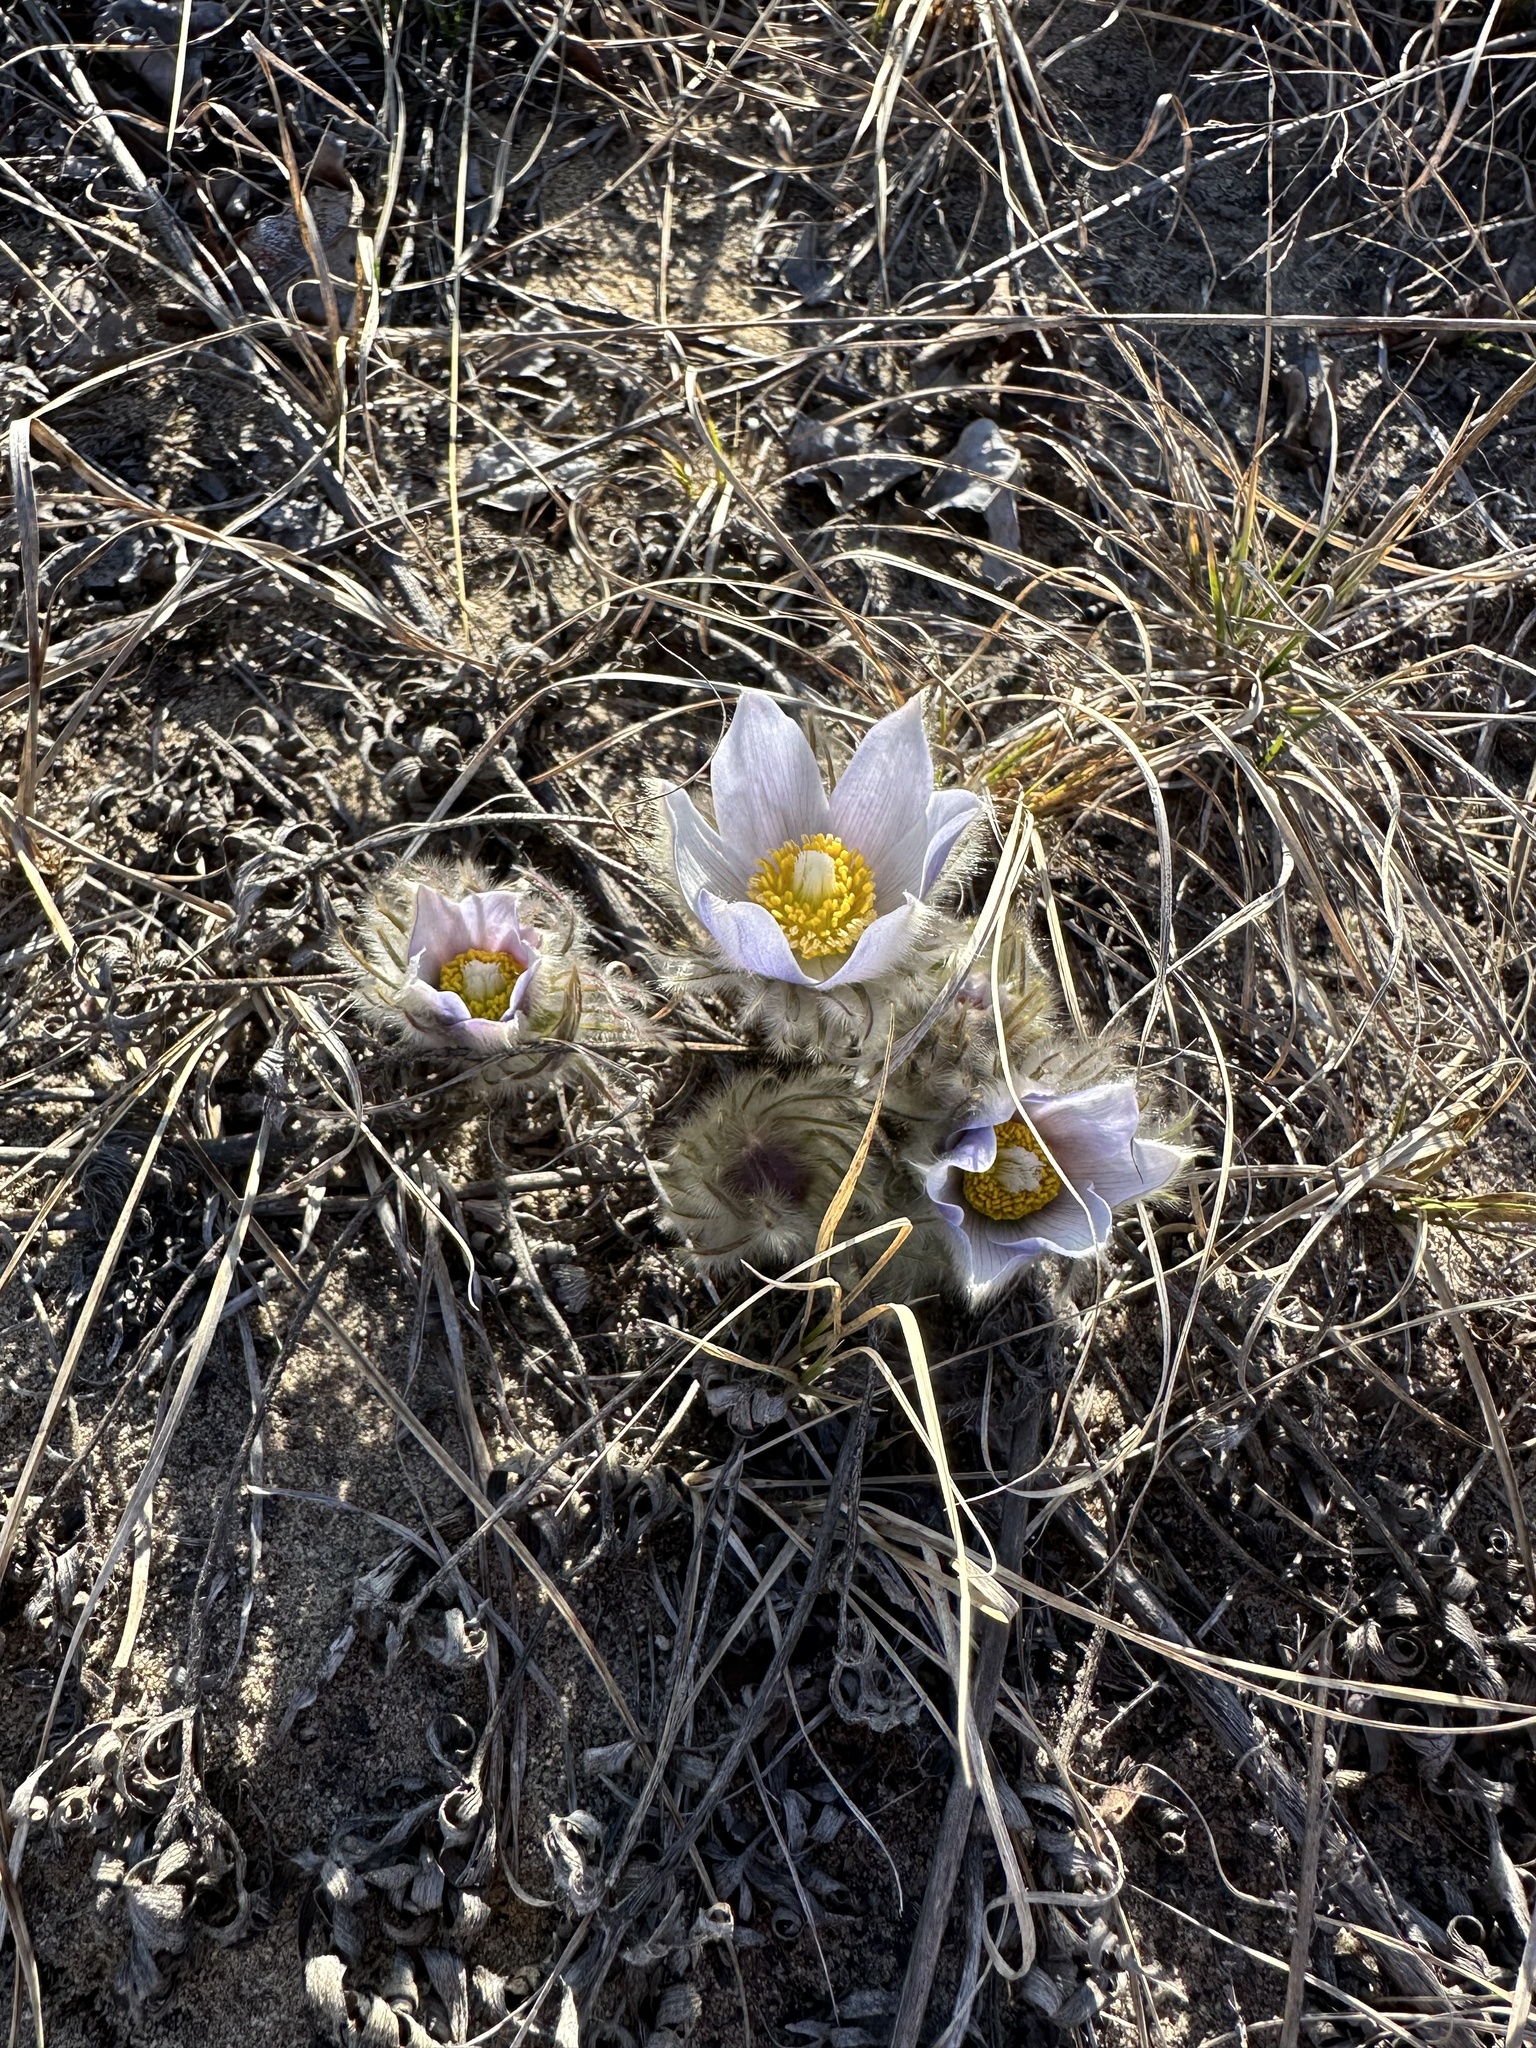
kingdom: Plantae
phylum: Tracheophyta
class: Magnoliopsida
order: Ranunculales
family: Ranunculaceae
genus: Pulsatilla
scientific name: Pulsatilla nuttalliana
